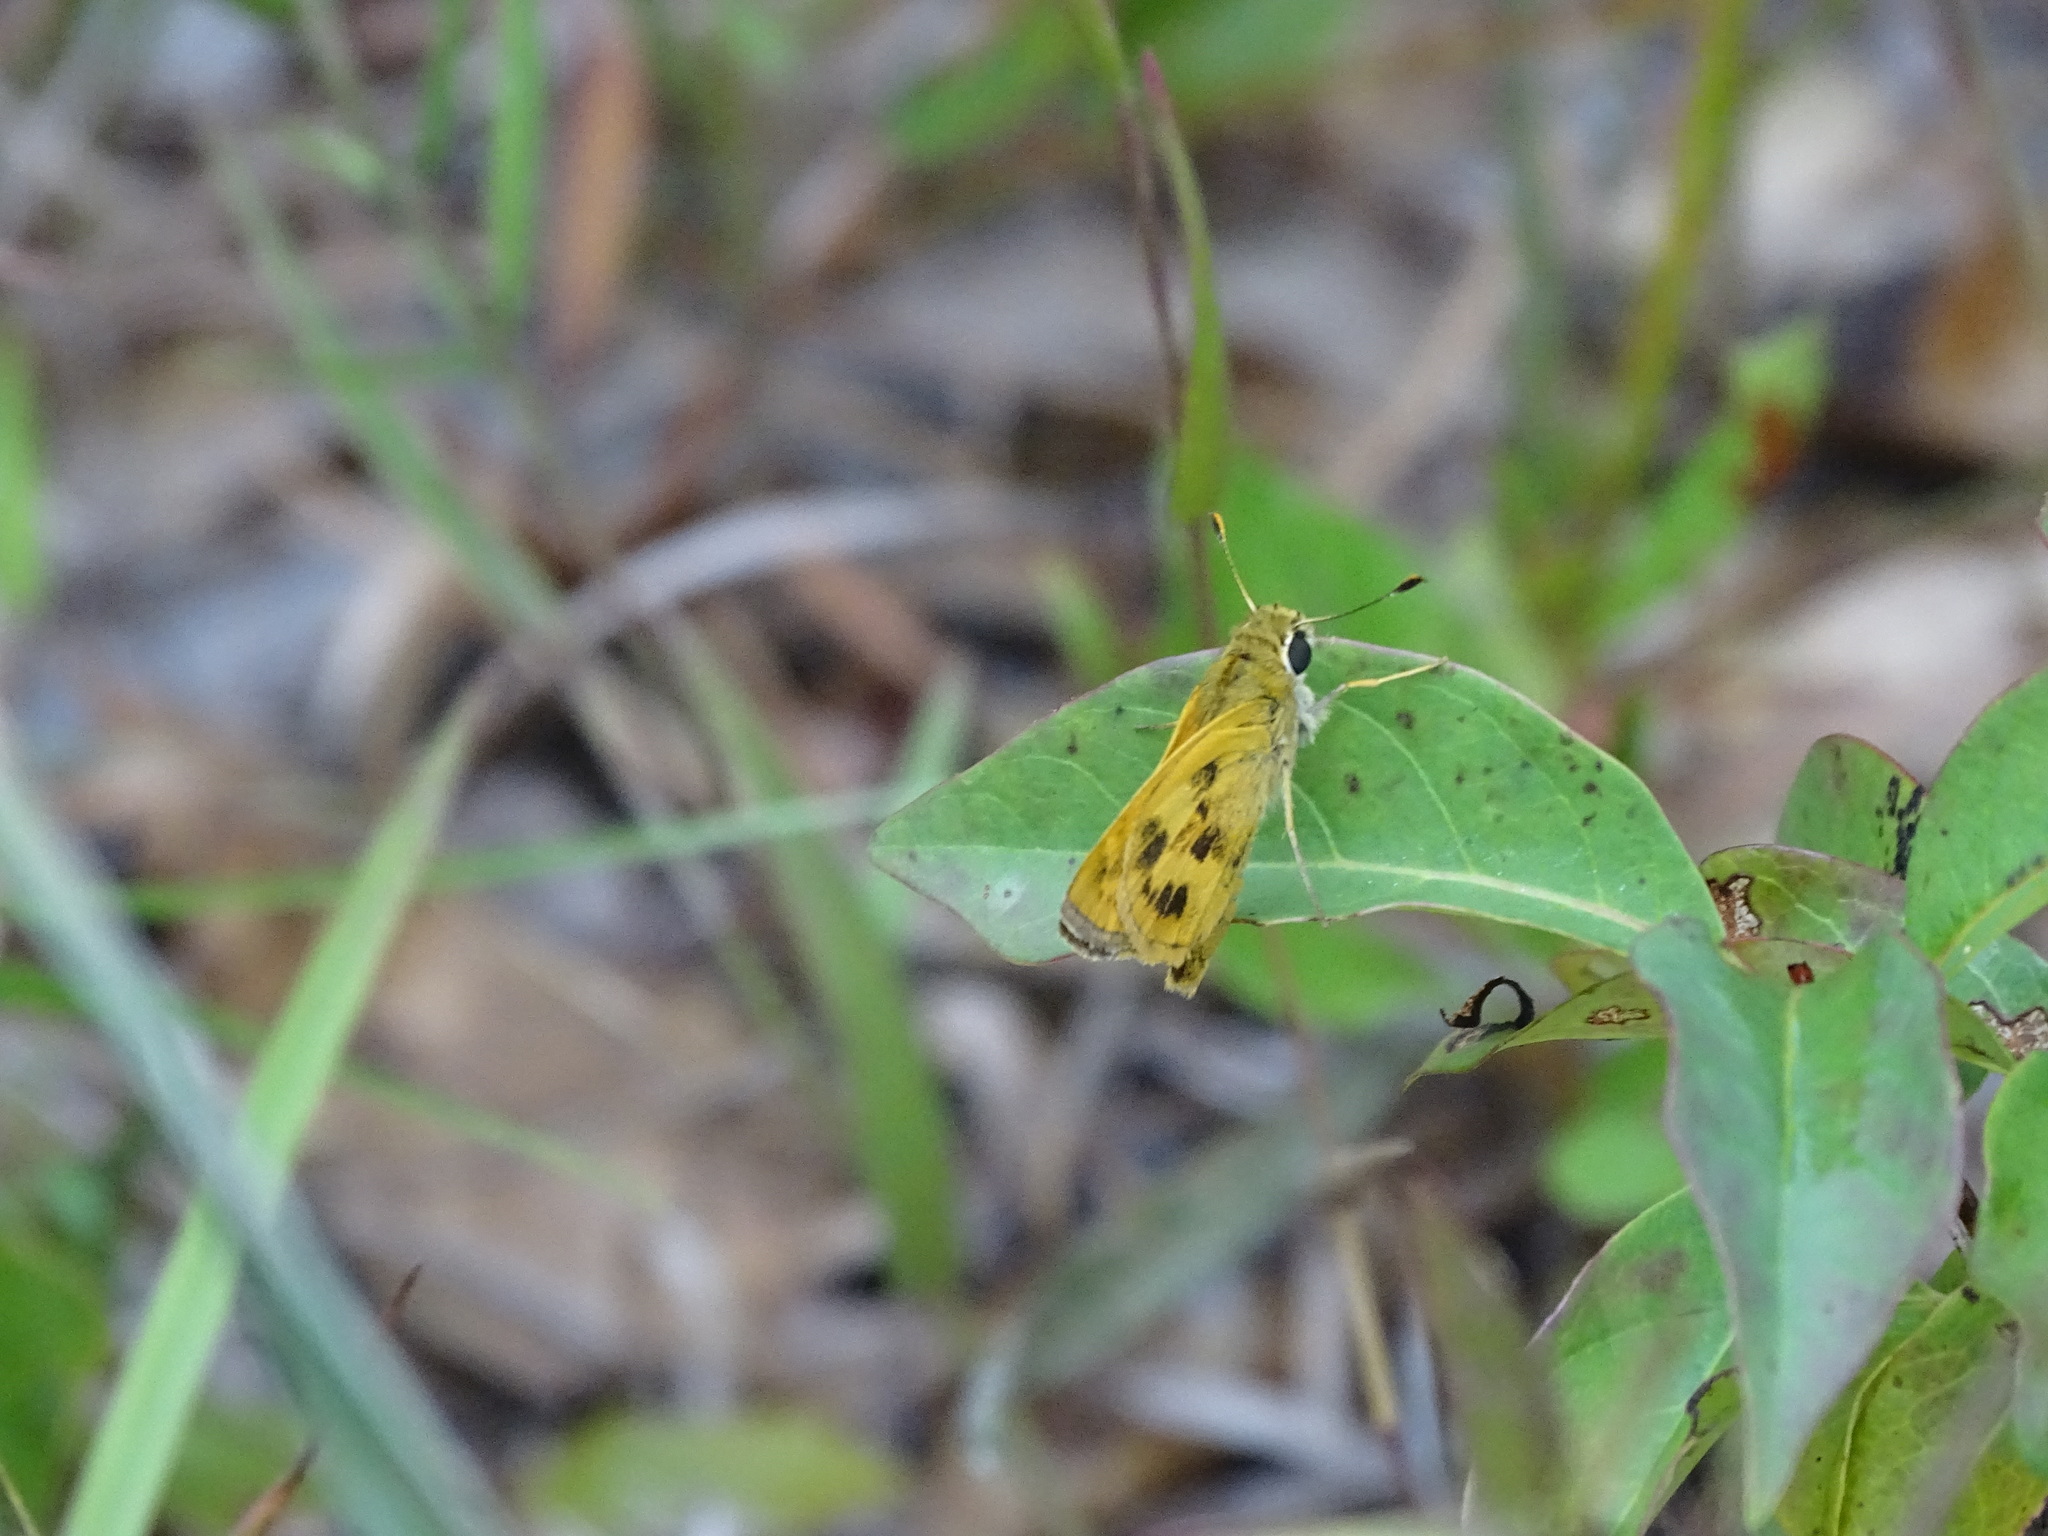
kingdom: Animalia
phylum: Arthropoda
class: Insecta
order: Lepidoptera
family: Hesperiidae
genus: Polites
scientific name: Polites vibex
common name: Whirlabout
